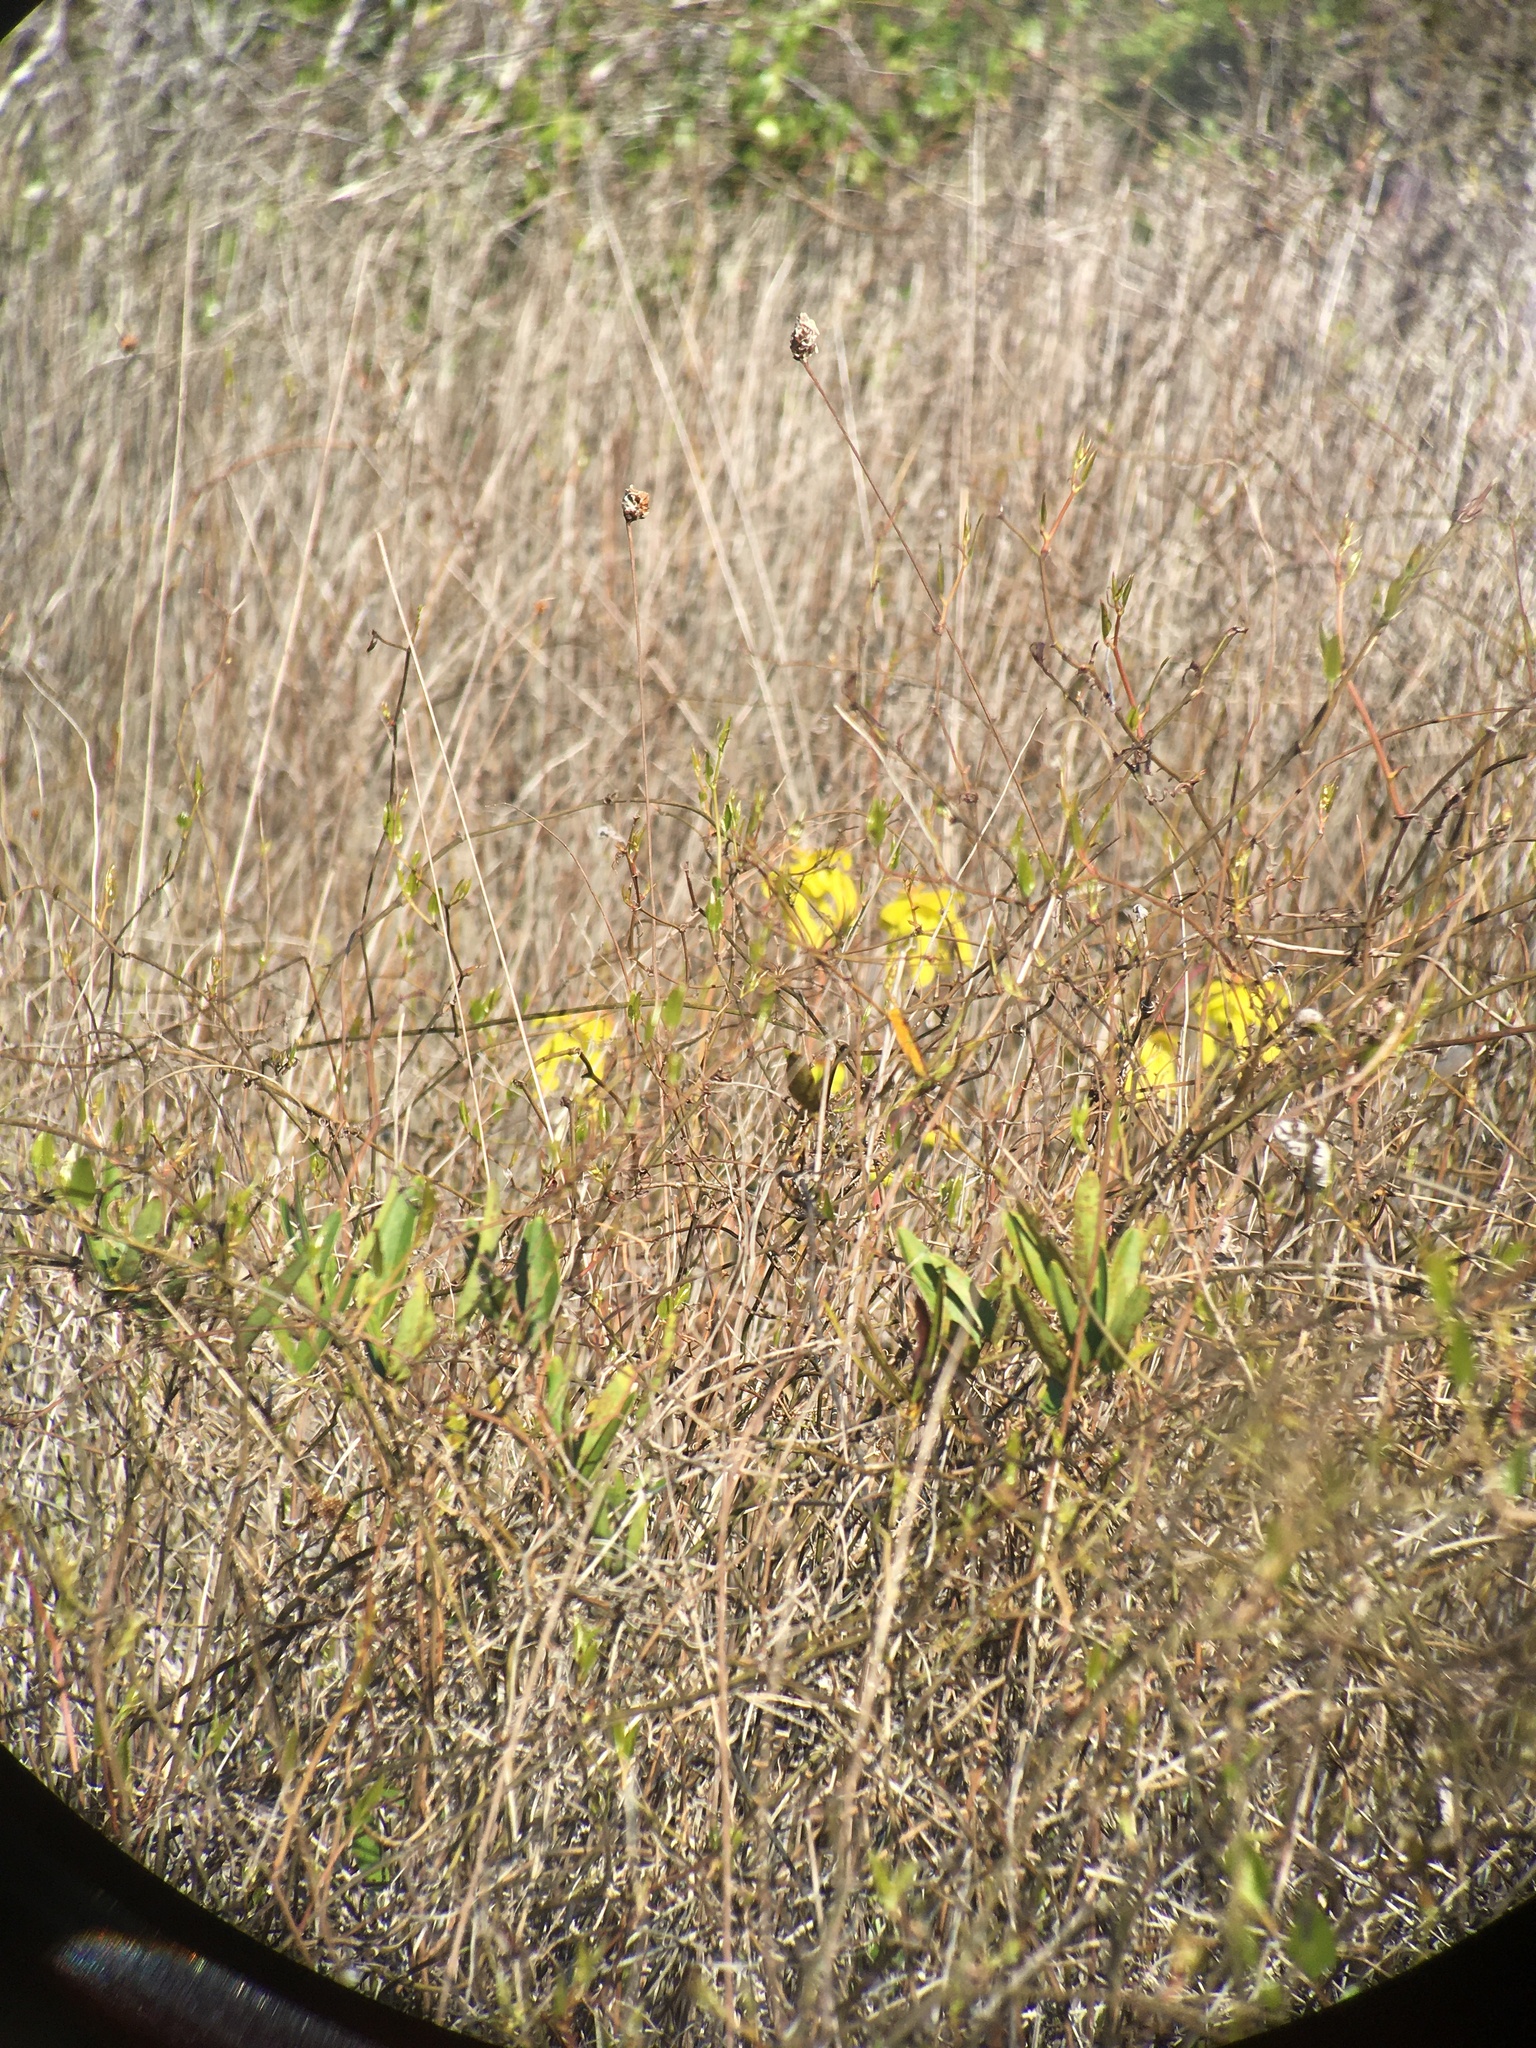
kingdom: Plantae
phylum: Tracheophyta
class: Magnoliopsida
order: Ericales
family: Sarraceniaceae
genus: Sarracenia
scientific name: Sarracenia flava
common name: Trumpets
